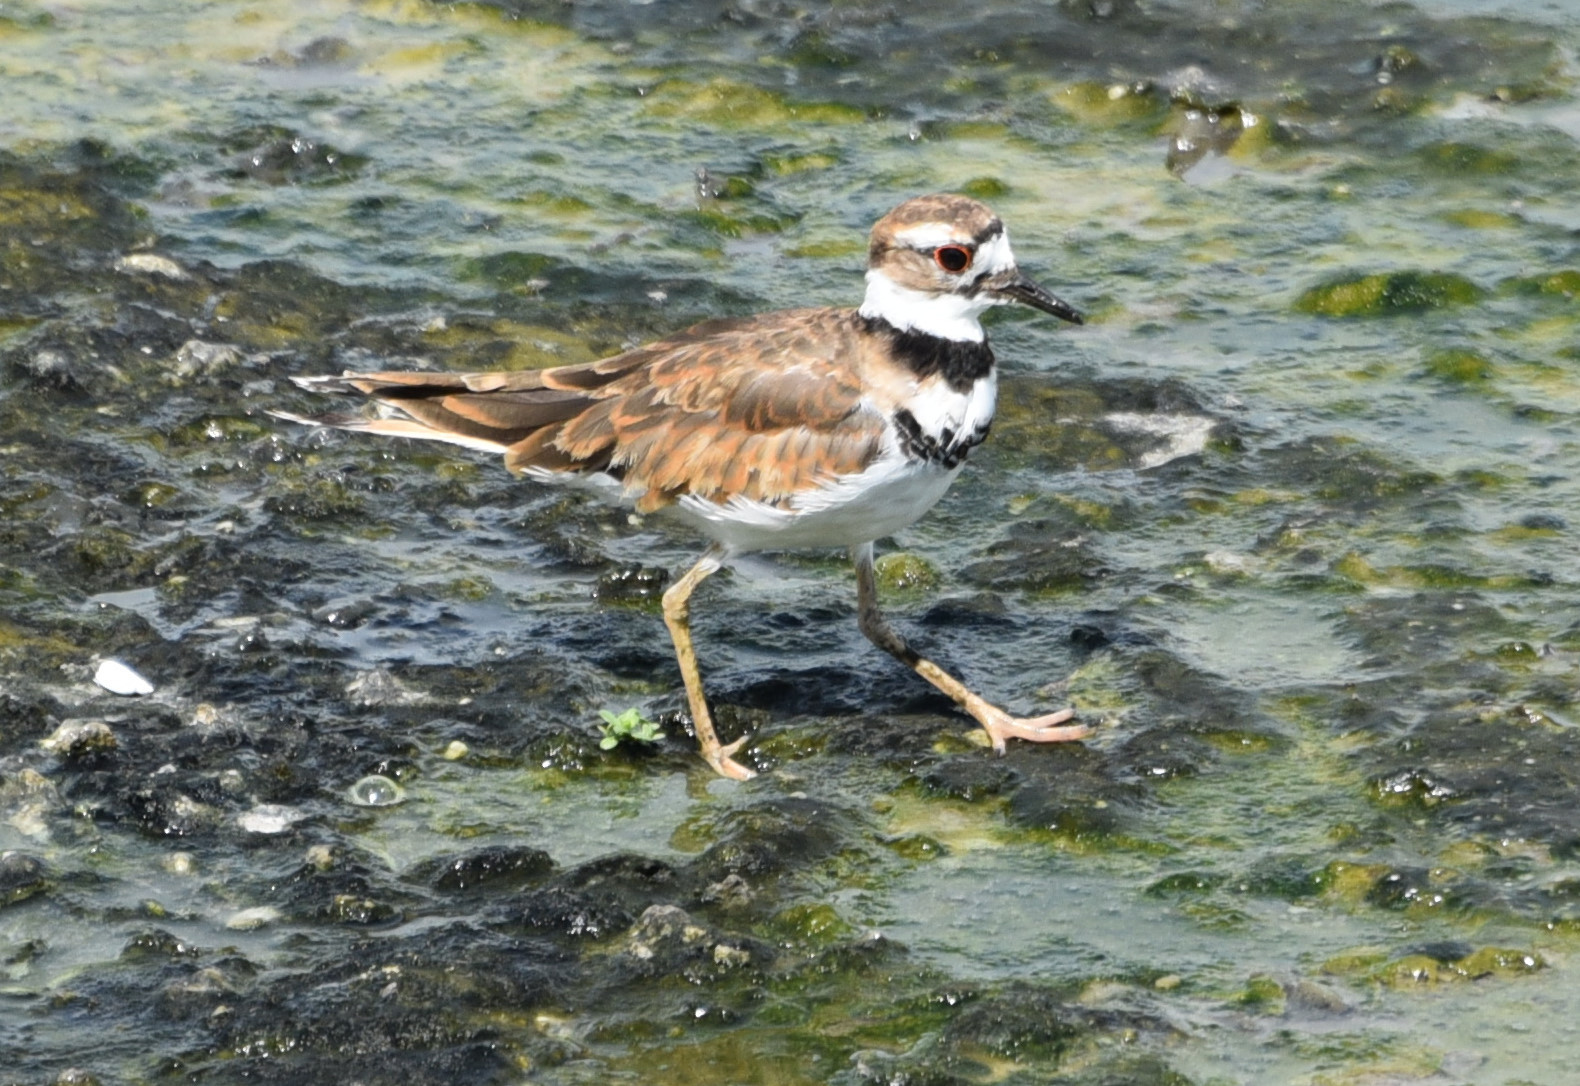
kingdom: Animalia
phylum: Chordata
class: Aves
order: Charadriiformes
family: Charadriidae
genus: Charadrius
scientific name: Charadrius vociferus
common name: Killdeer
